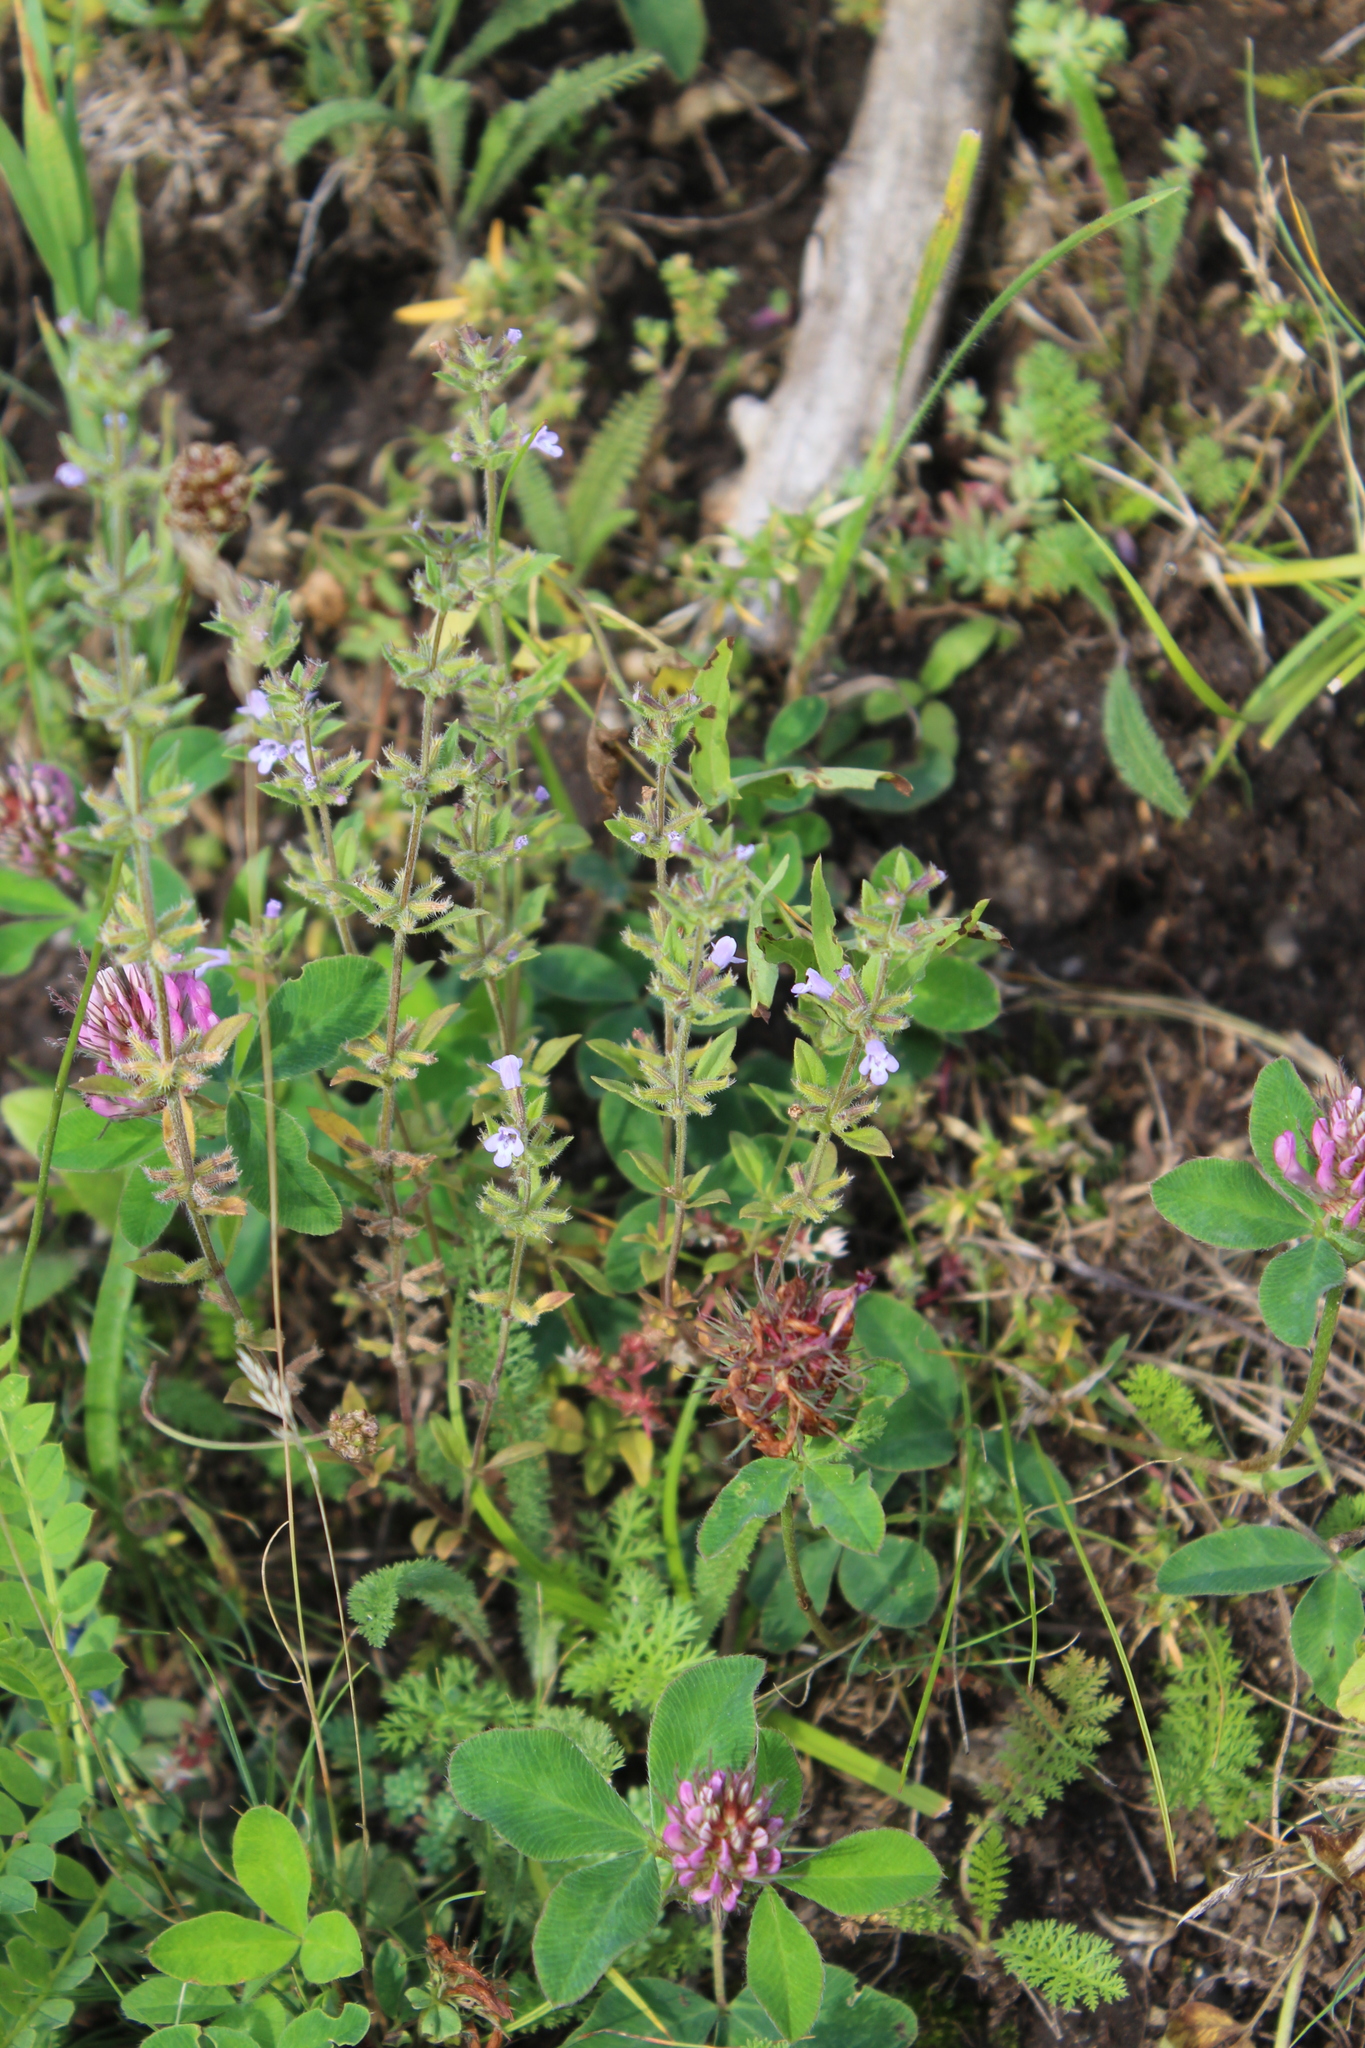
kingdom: Plantae
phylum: Tracheophyta
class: Magnoliopsida
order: Lamiales
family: Lamiaceae
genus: Clinopodium
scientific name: Clinopodium acinos
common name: Basil thyme
